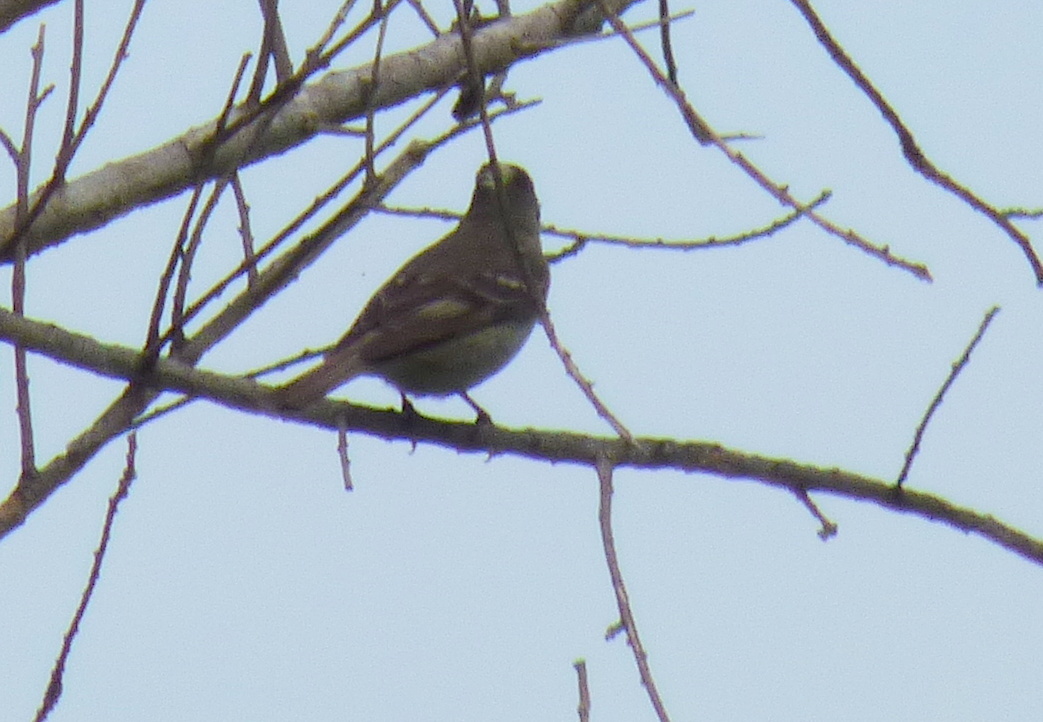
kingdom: Animalia
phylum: Chordata
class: Aves
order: Passeriformes
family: Tyrannidae
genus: Elaenia
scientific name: Elaenia albiceps
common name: White-crested elaenia
